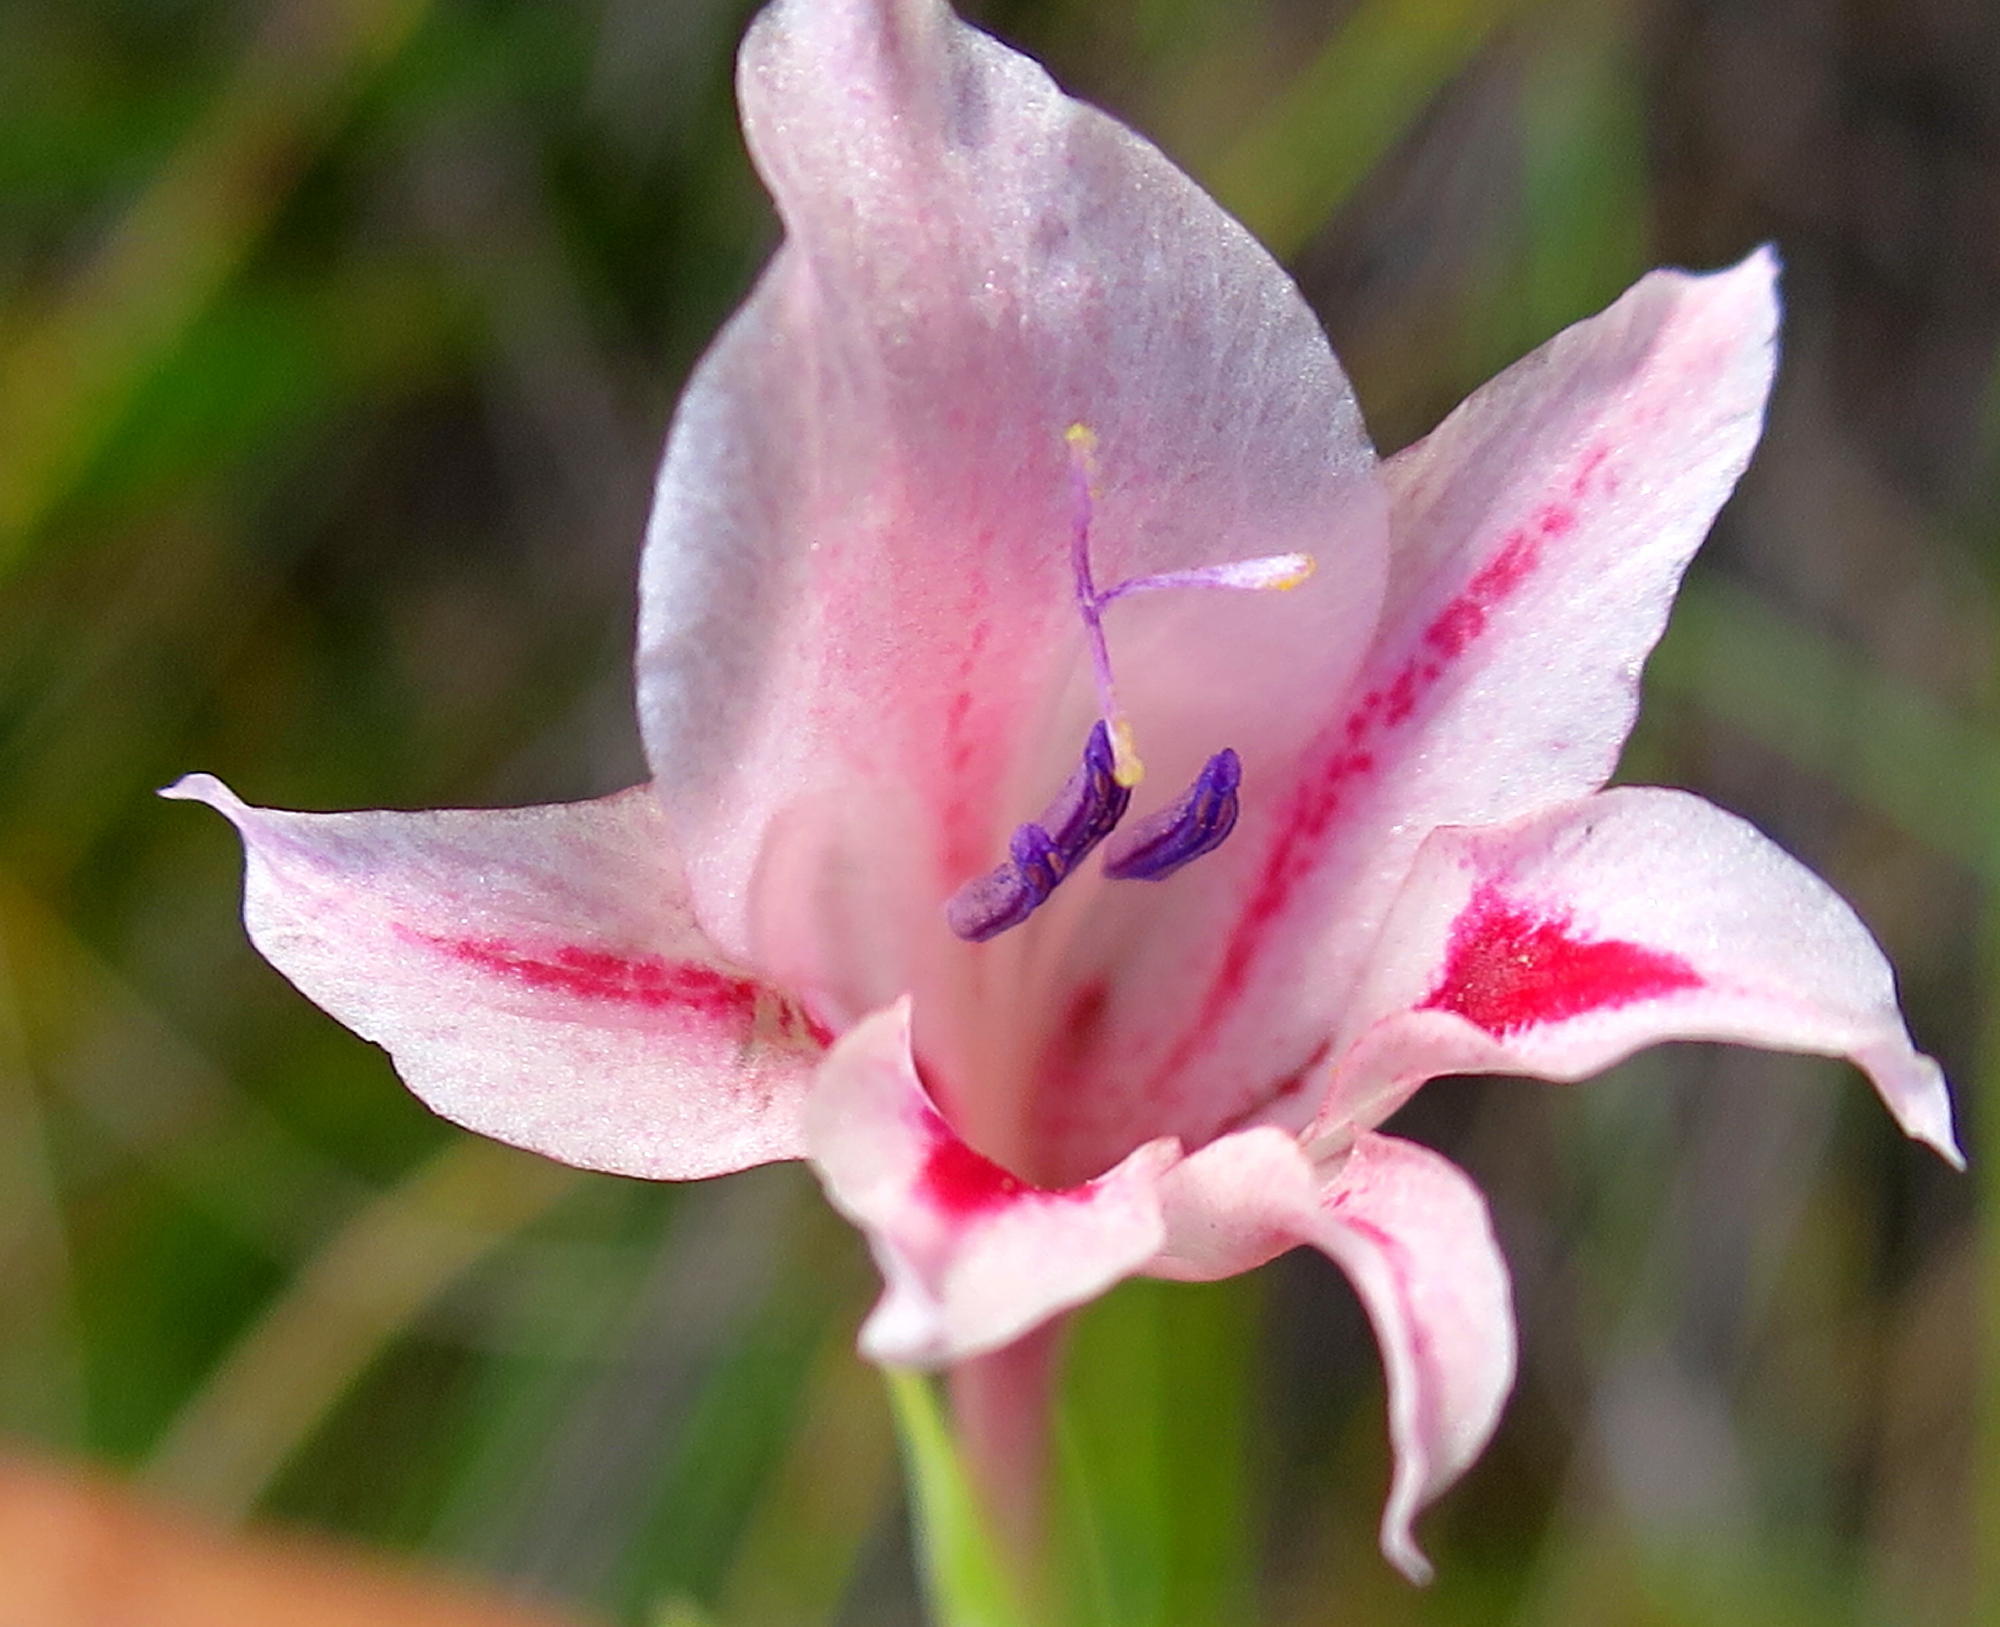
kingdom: Plantae
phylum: Tracheophyta
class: Liliopsida
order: Asparagales
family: Iridaceae
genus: Gladiolus
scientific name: Gladiolus nigromontanus
